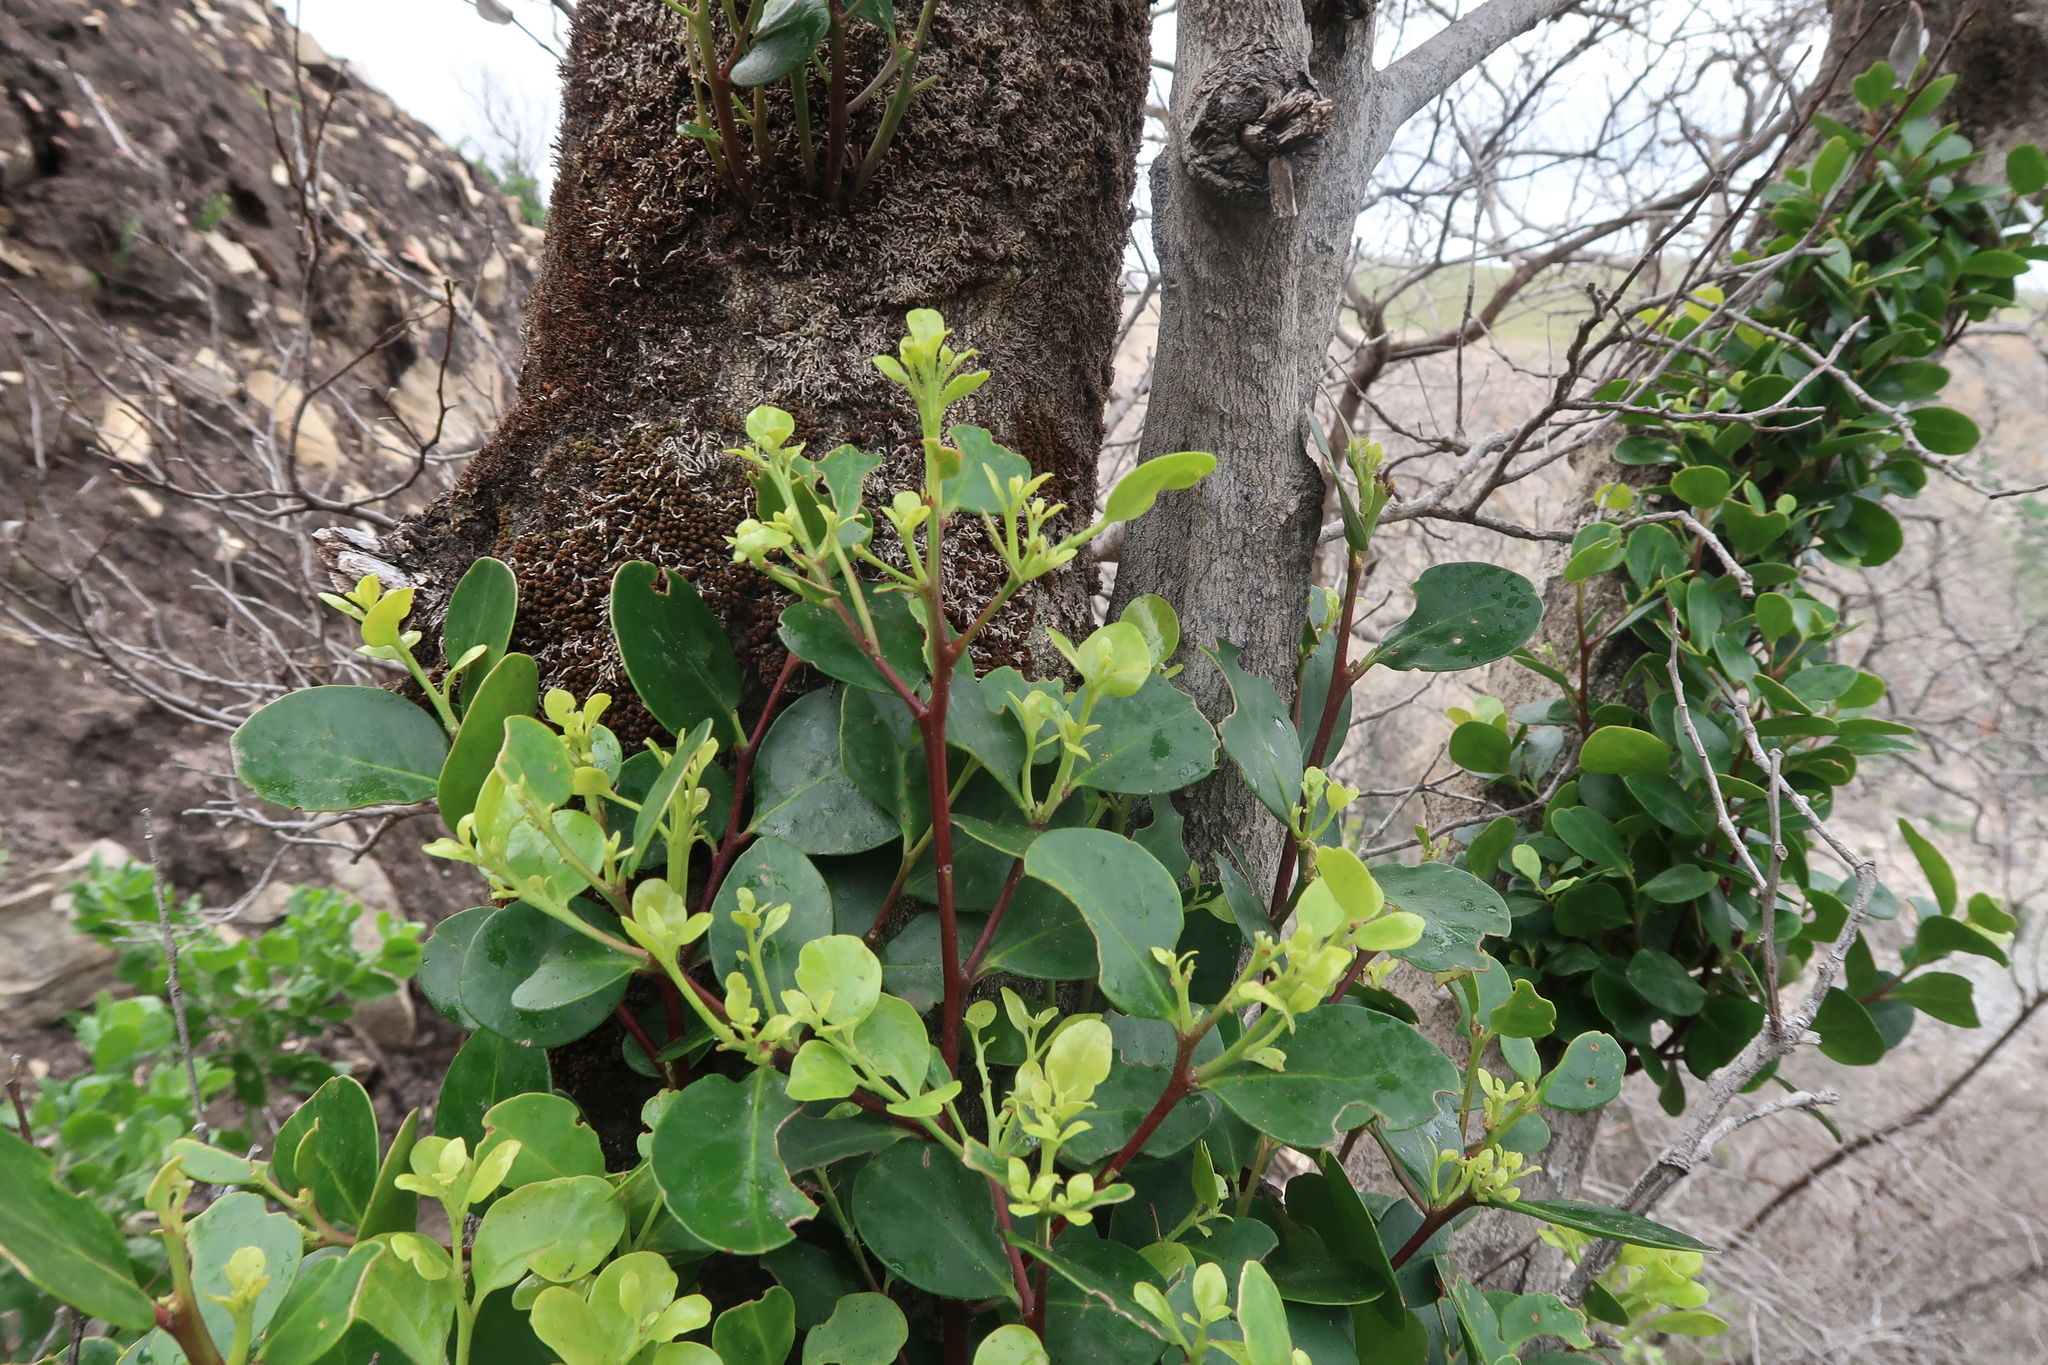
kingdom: Plantae
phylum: Tracheophyta
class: Magnoliopsida
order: Celastrales
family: Celastraceae
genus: Pterocelastrus
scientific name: Pterocelastrus tricuspidatus
